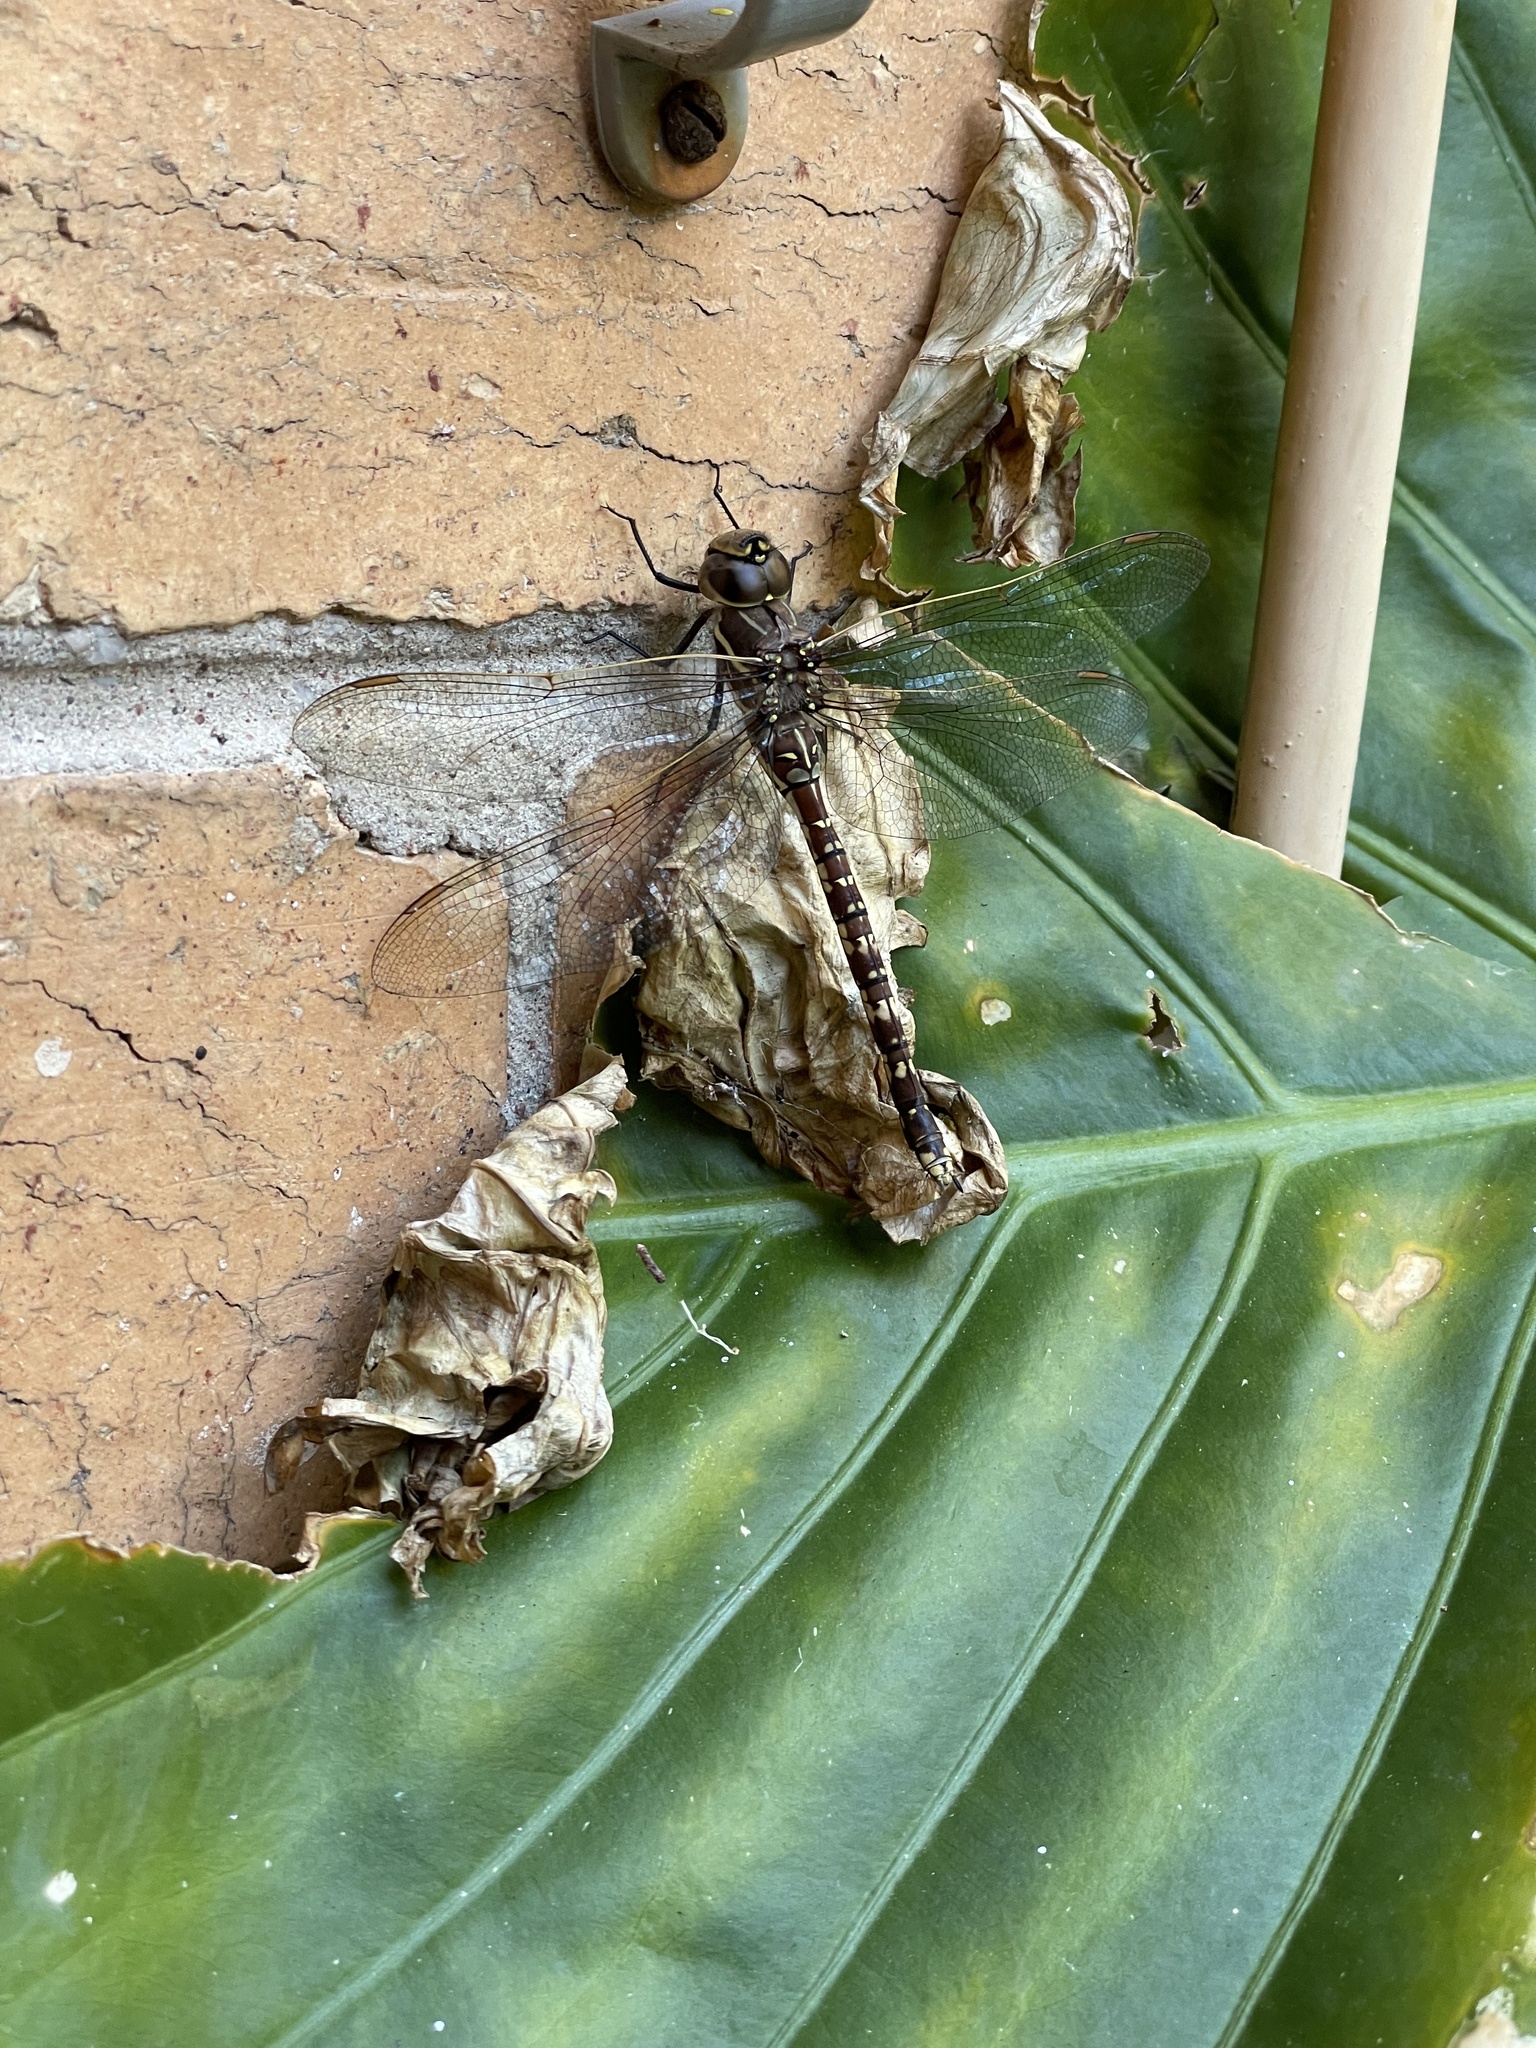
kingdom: Animalia
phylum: Arthropoda
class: Insecta
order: Odonata
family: Aeshnidae
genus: Aeshna
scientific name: Aeshna brevistyla
